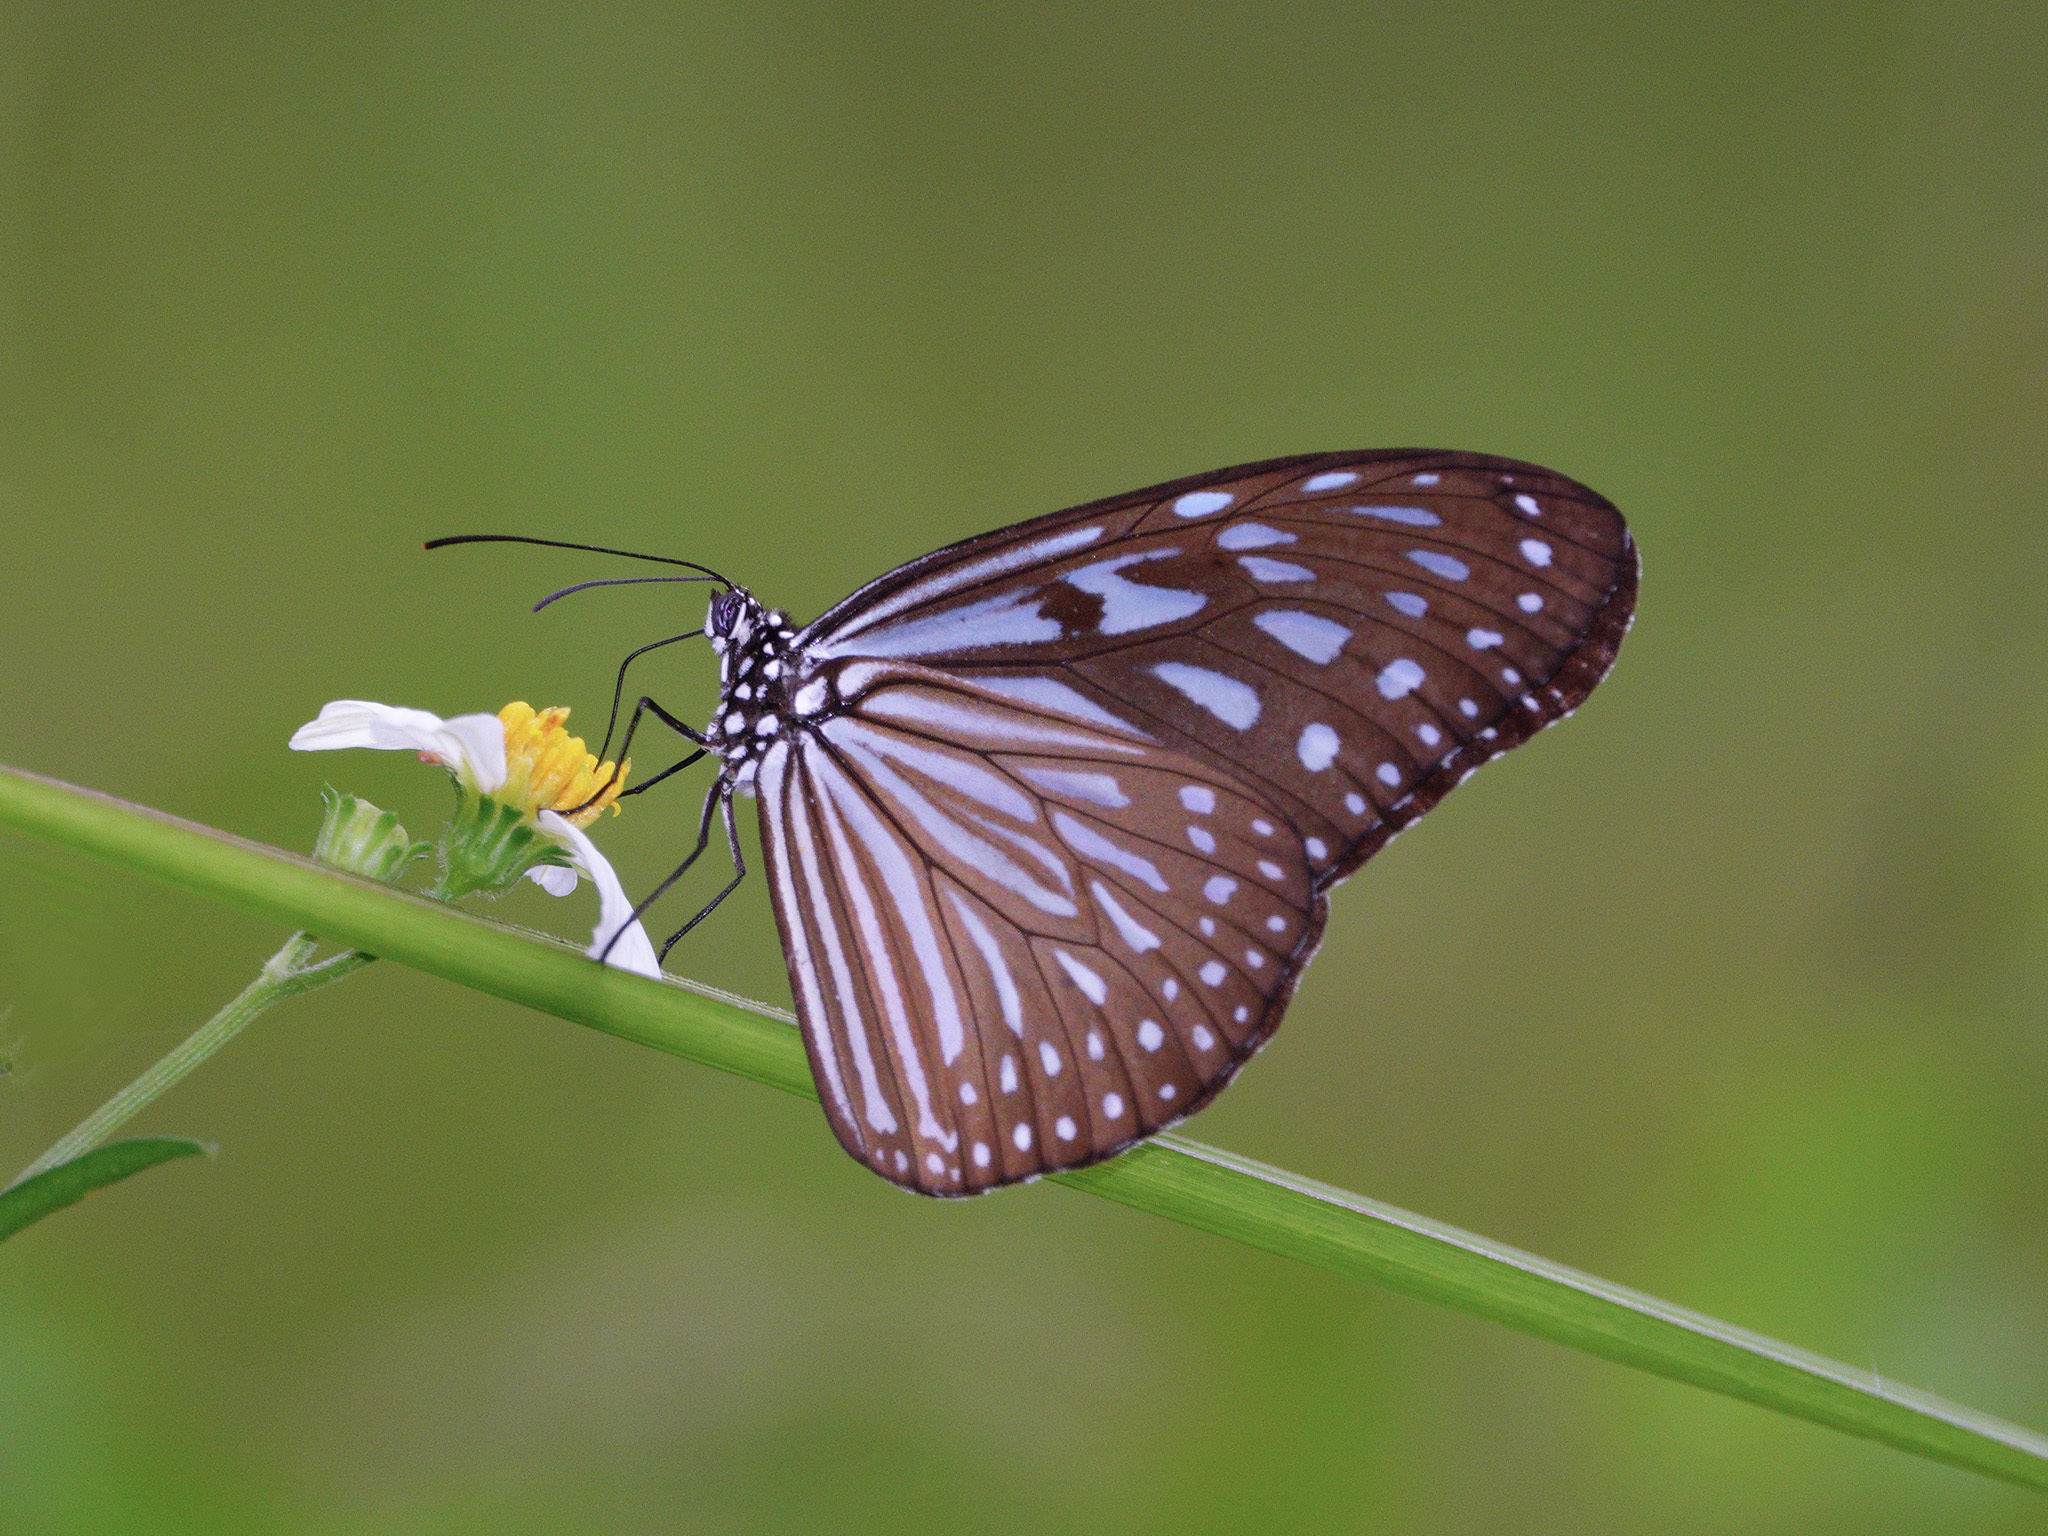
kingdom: Animalia
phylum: Arthropoda
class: Insecta
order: Lepidoptera
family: Nymphalidae
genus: Ideopsis
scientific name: Ideopsis vulgaris
